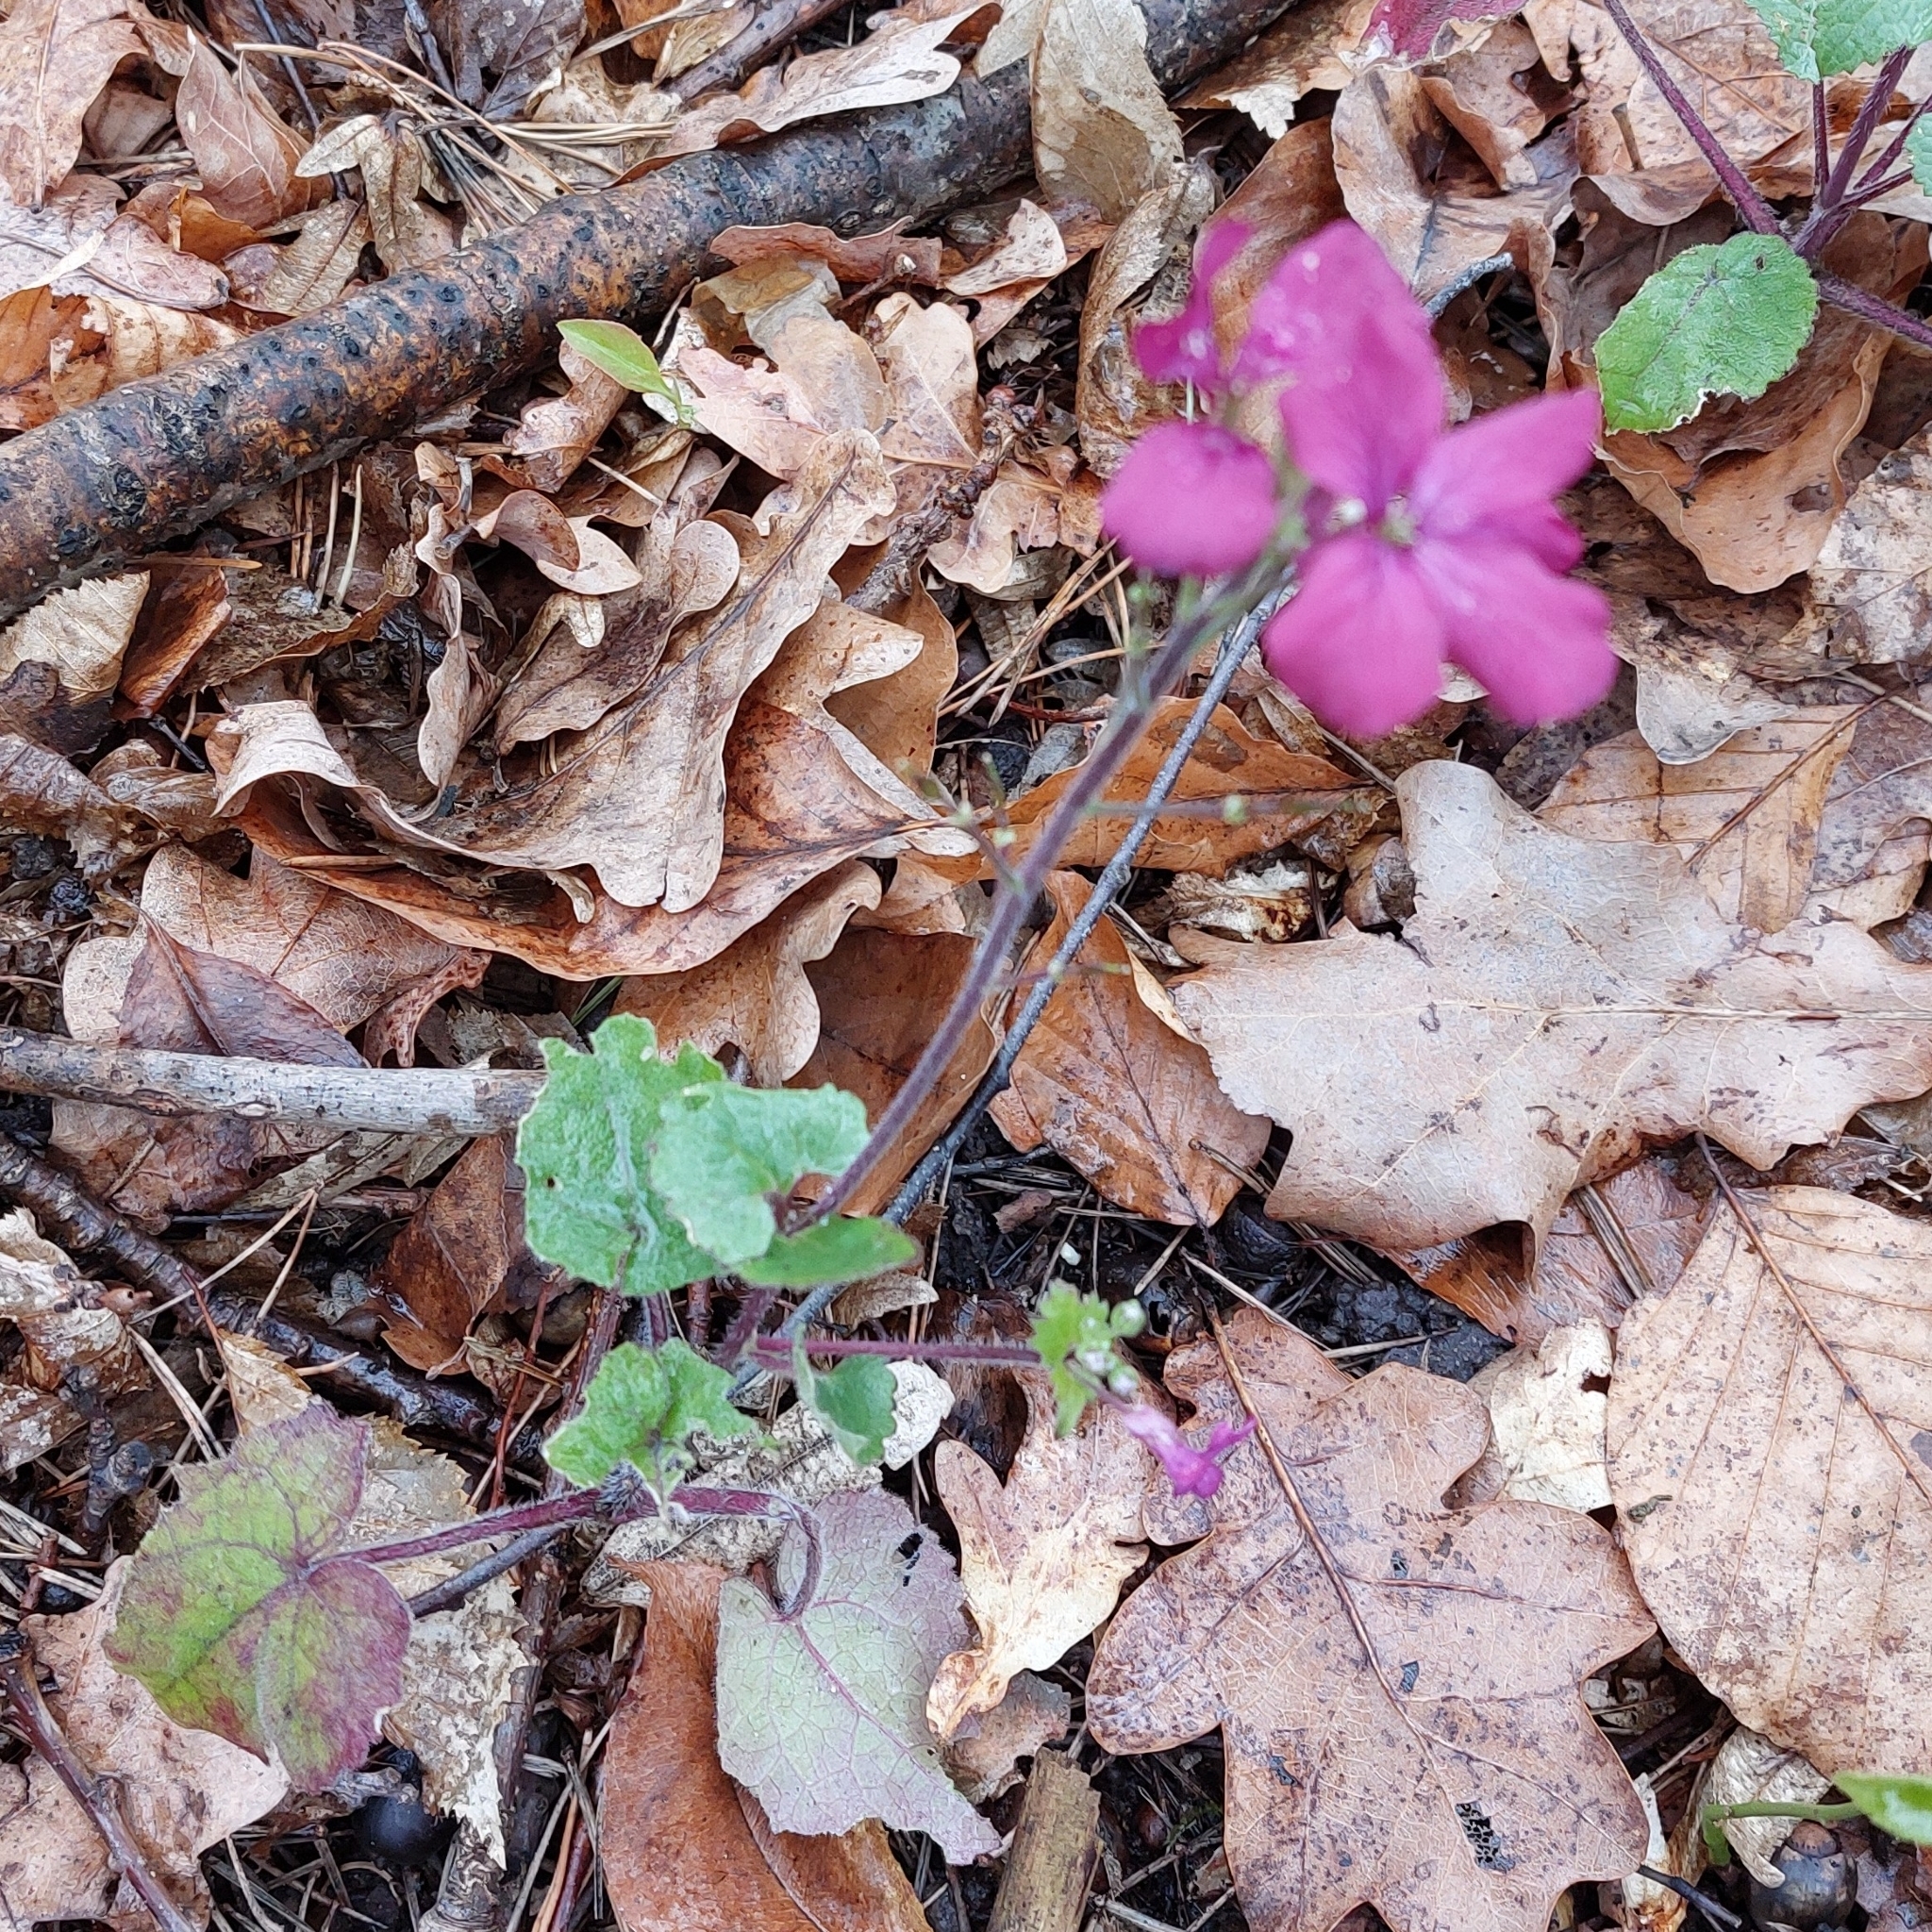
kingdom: Plantae
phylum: Tracheophyta
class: Magnoliopsida
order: Brassicales
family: Brassicaceae
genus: Lunaria
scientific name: Lunaria annua
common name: Honesty
